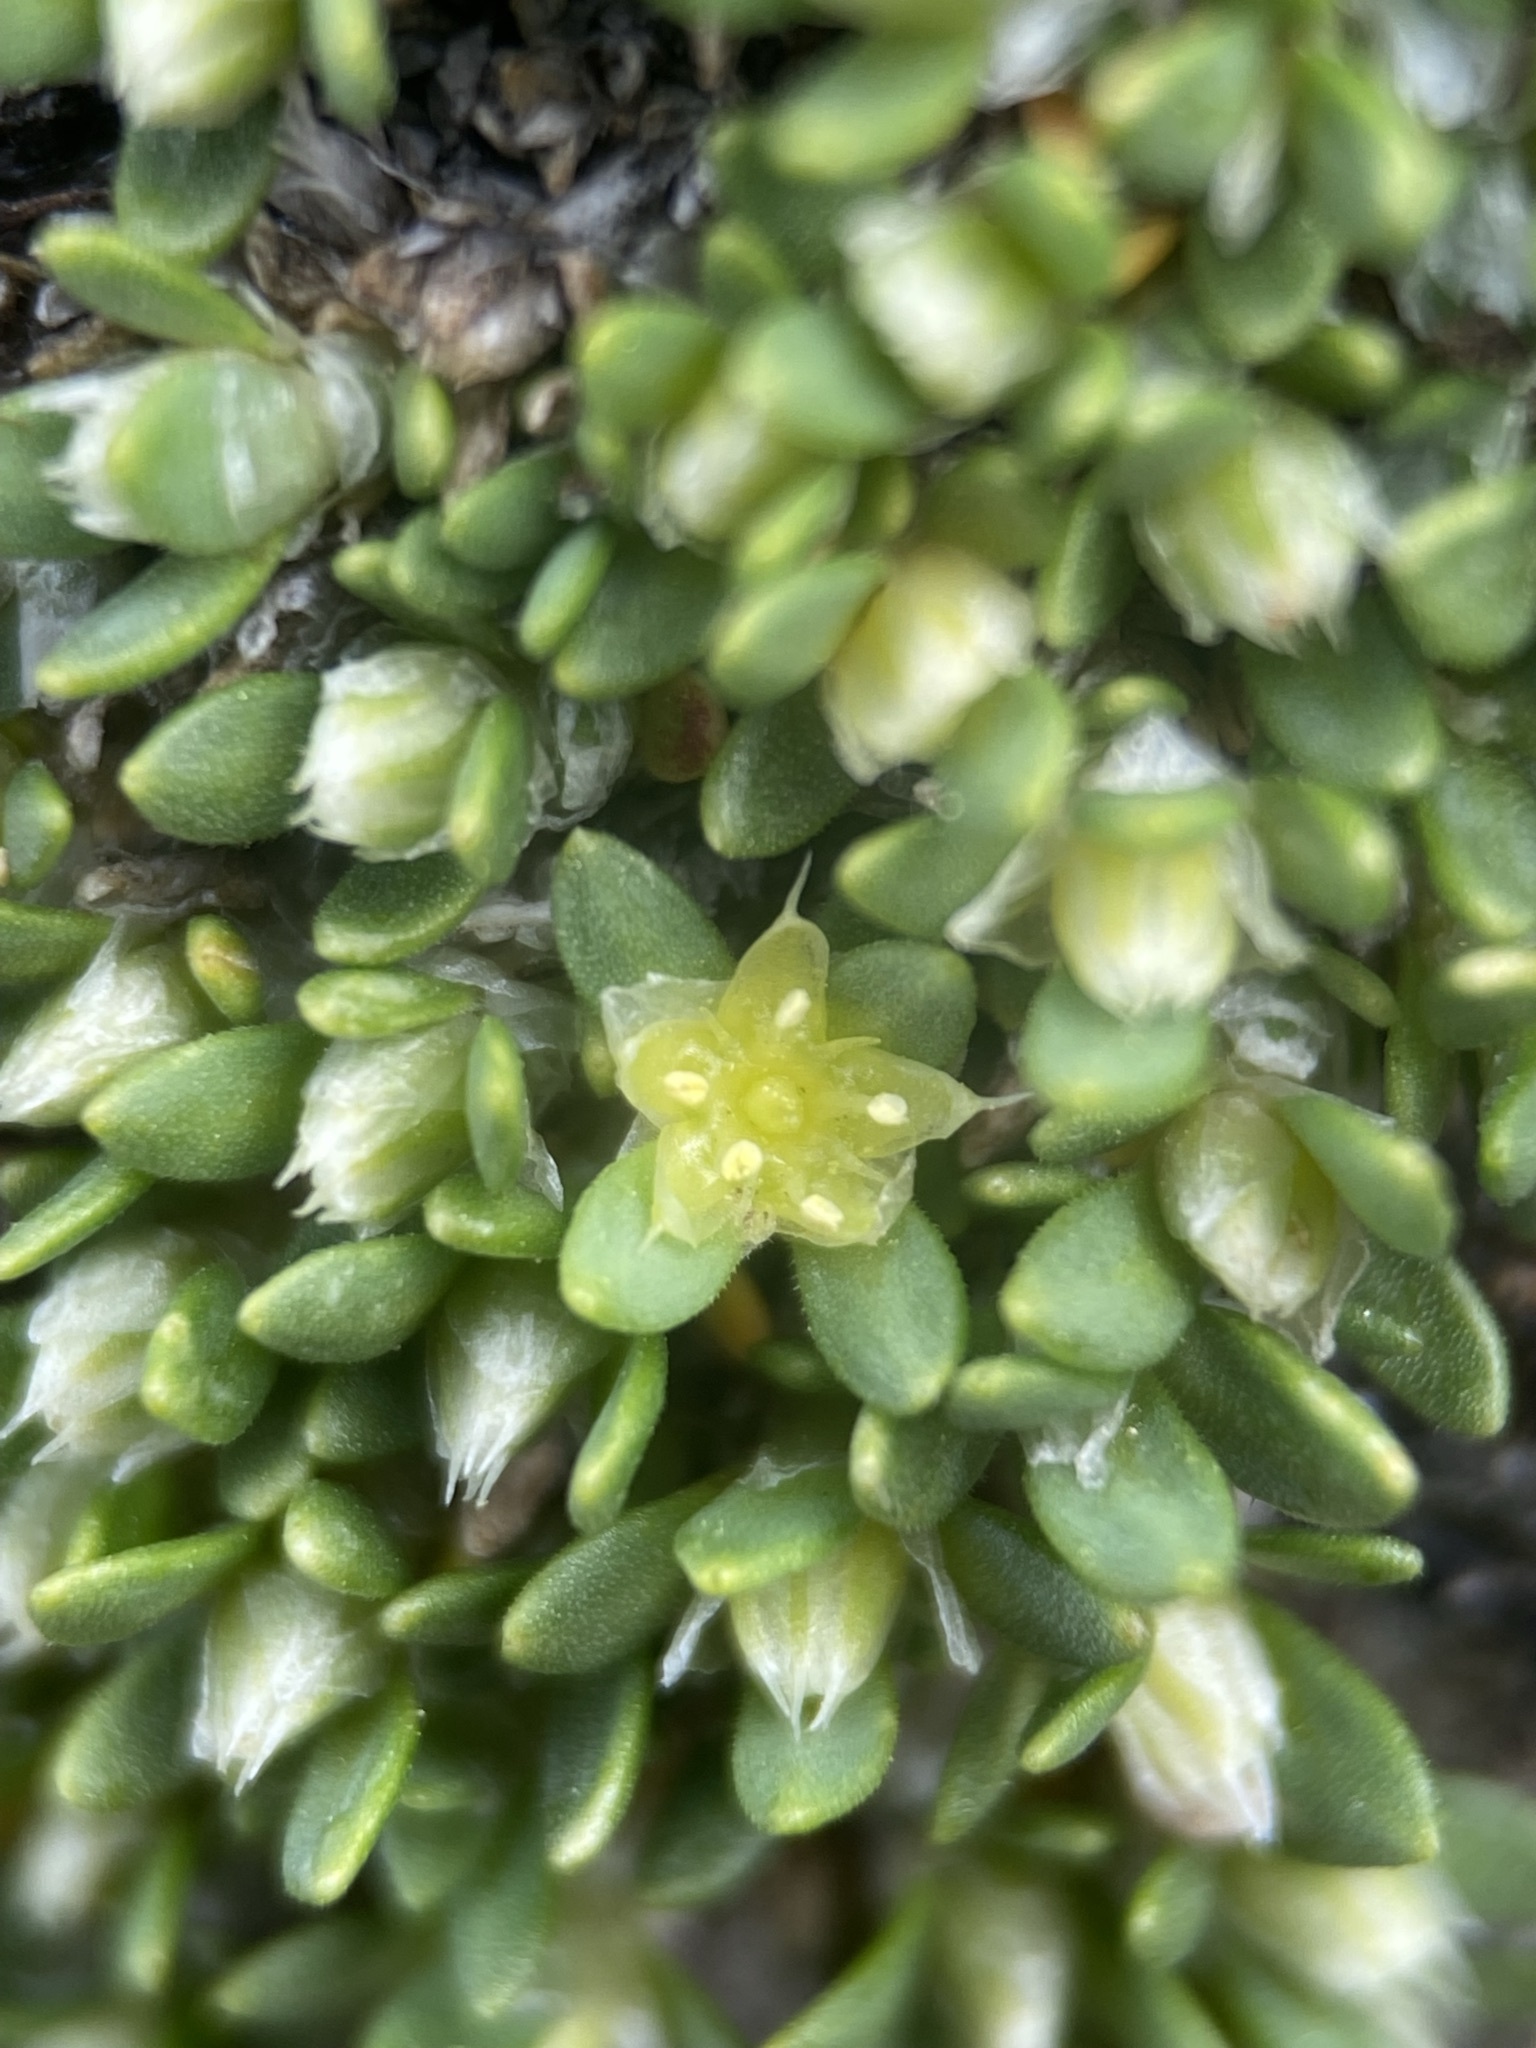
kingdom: Plantae
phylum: Tracheophyta
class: Magnoliopsida
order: Caryophyllales
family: Caryophyllaceae
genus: Paronychia
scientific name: Paronychia pulvinata
